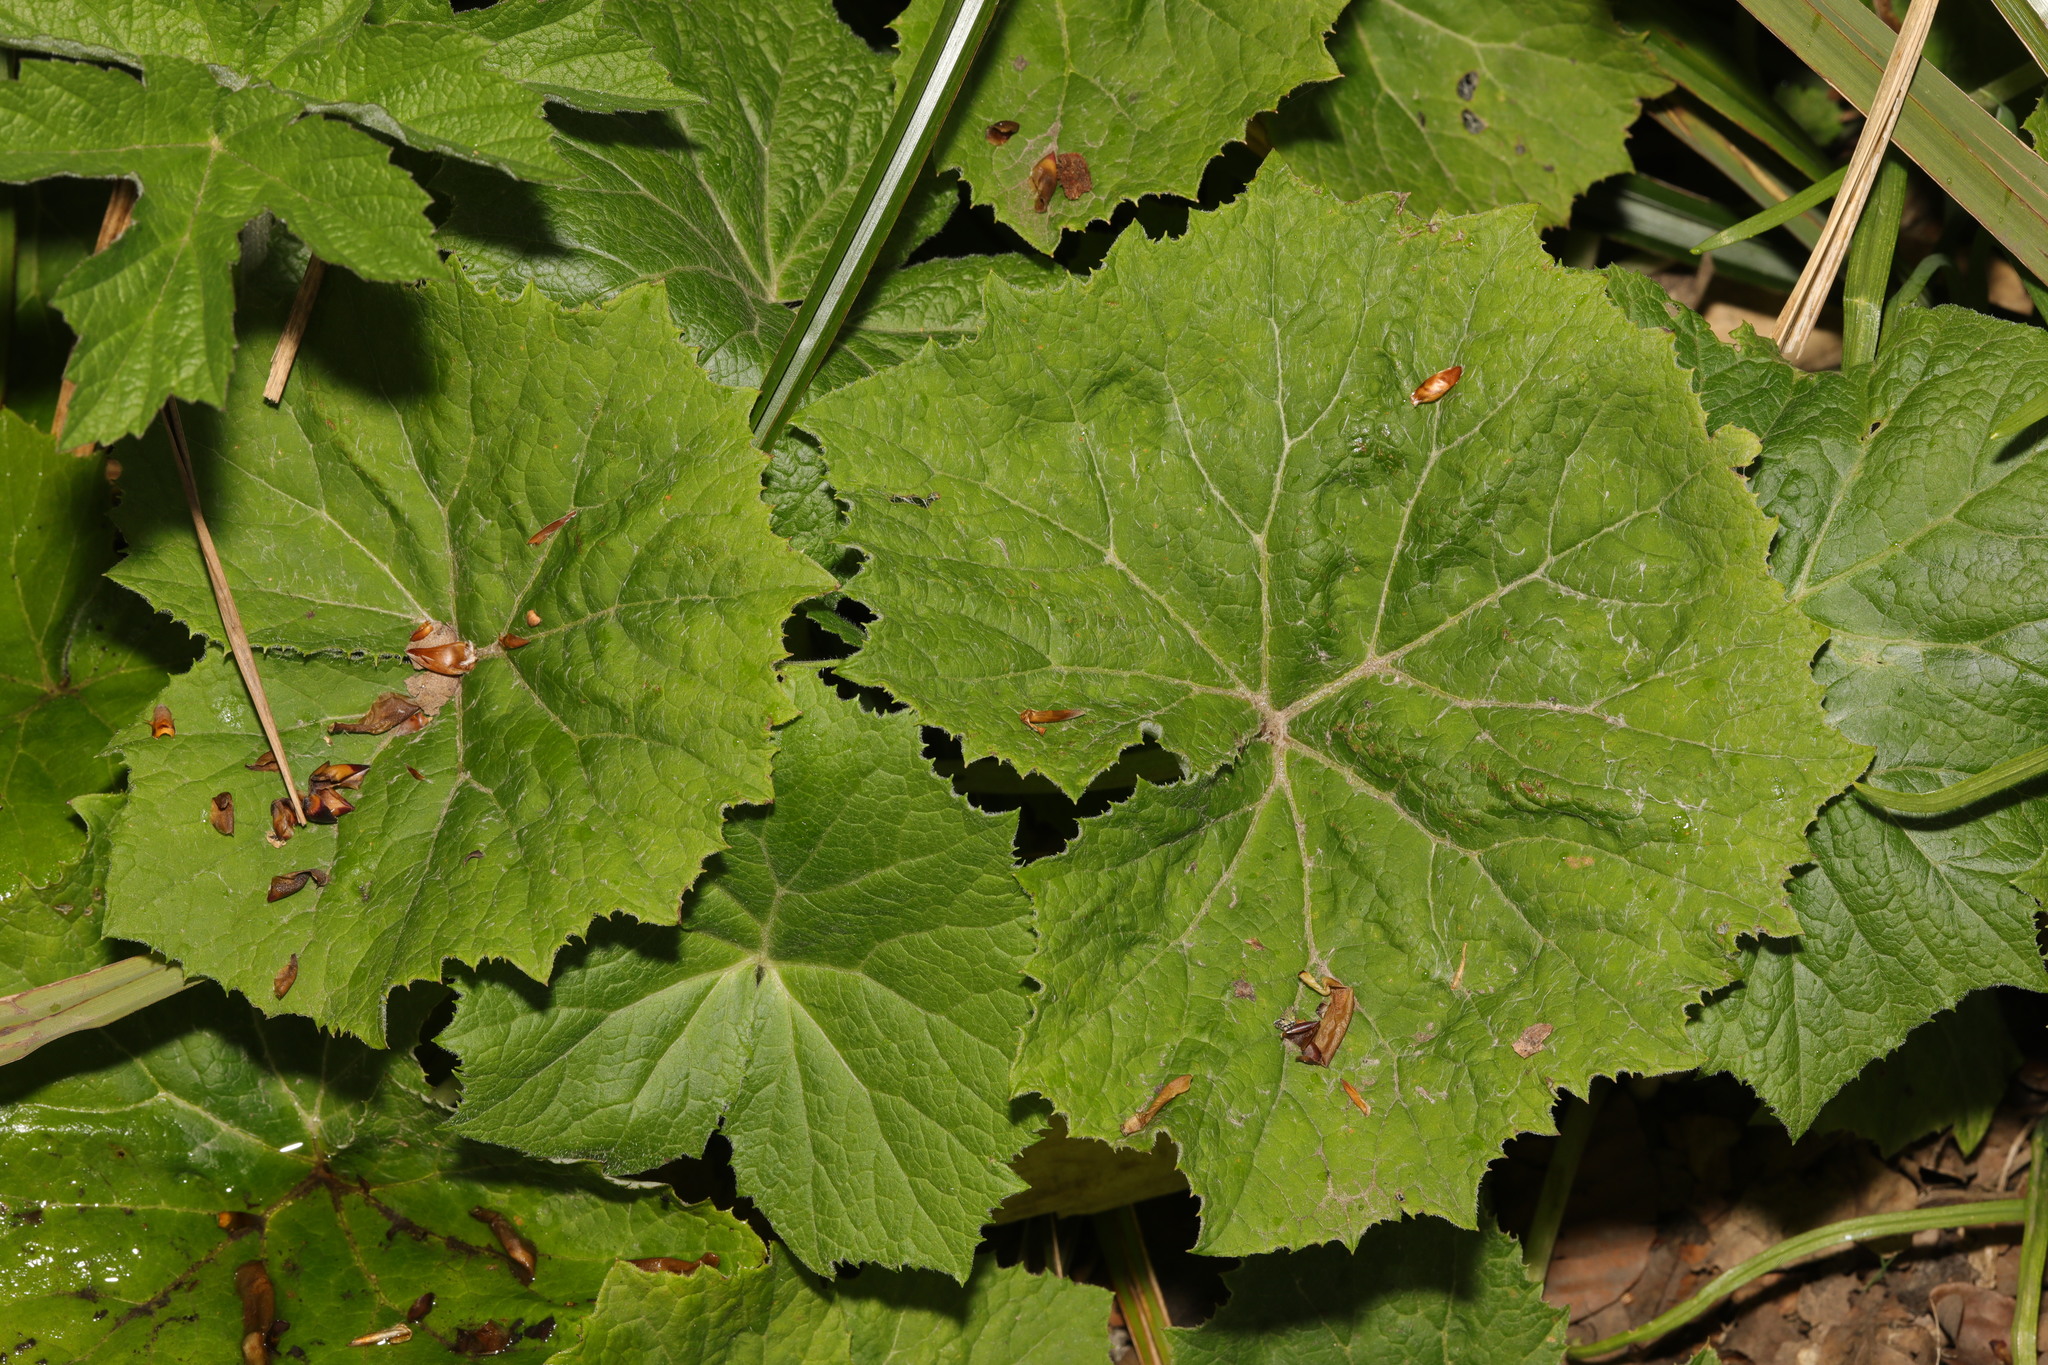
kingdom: Plantae
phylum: Tracheophyta
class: Magnoliopsida
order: Asterales
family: Asteraceae
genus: Tussilago
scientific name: Tussilago farfara
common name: Coltsfoot
